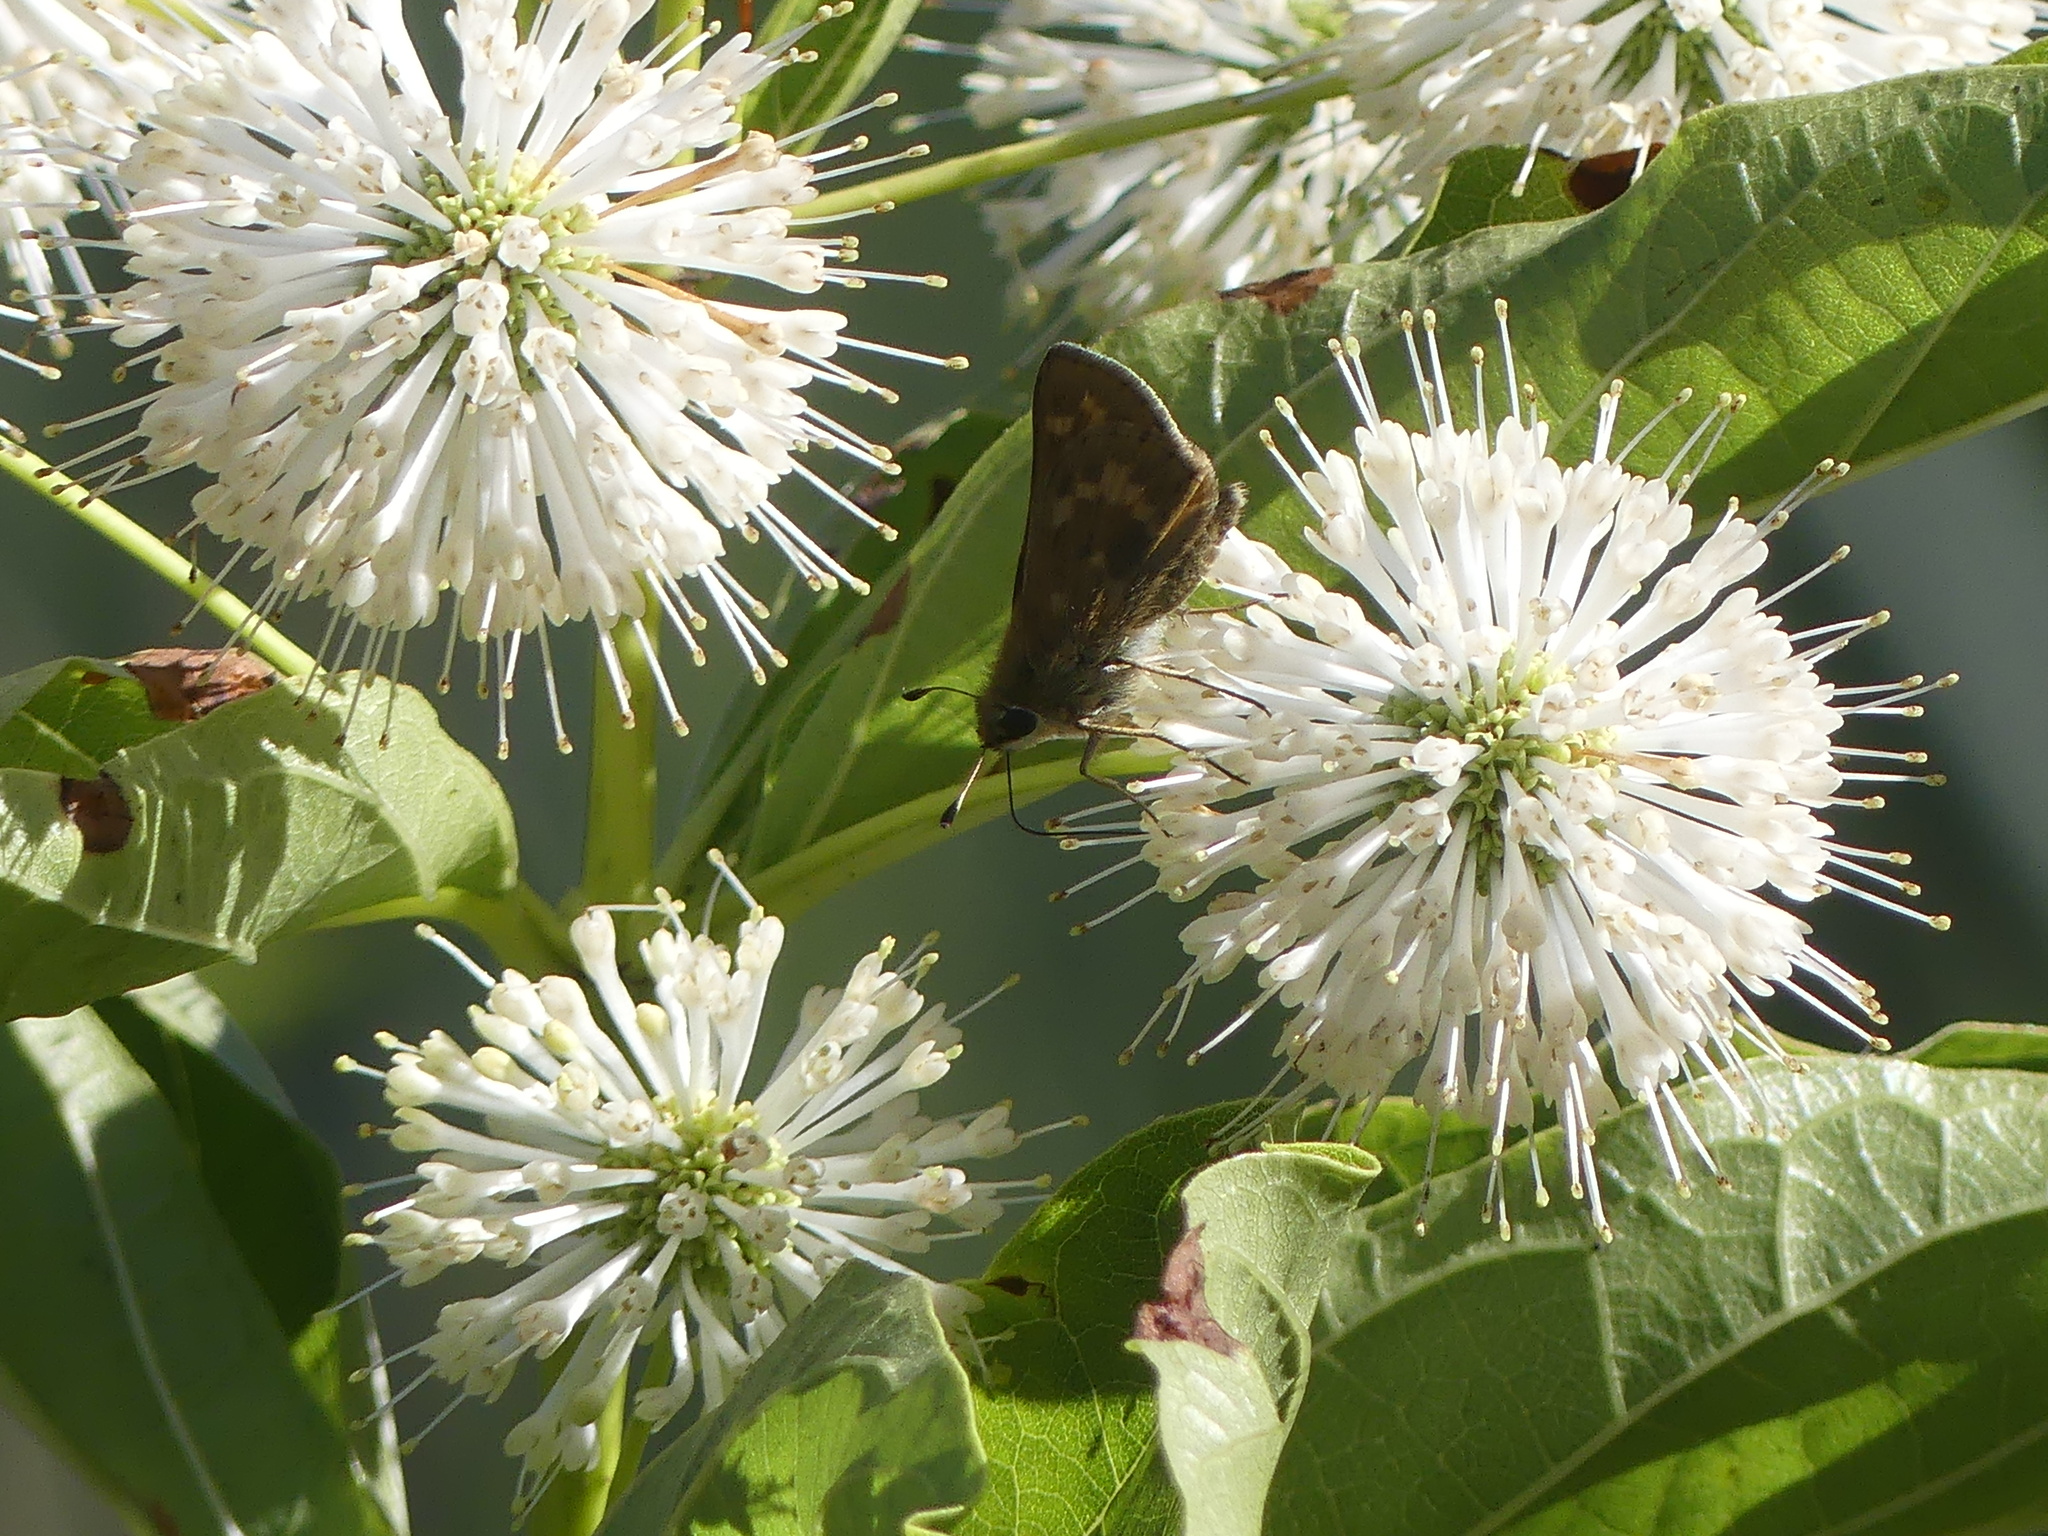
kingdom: Plantae
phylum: Tracheophyta
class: Magnoliopsida
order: Gentianales
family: Rubiaceae
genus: Cephalanthus
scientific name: Cephalanthus occidentalis
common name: Button-willow
